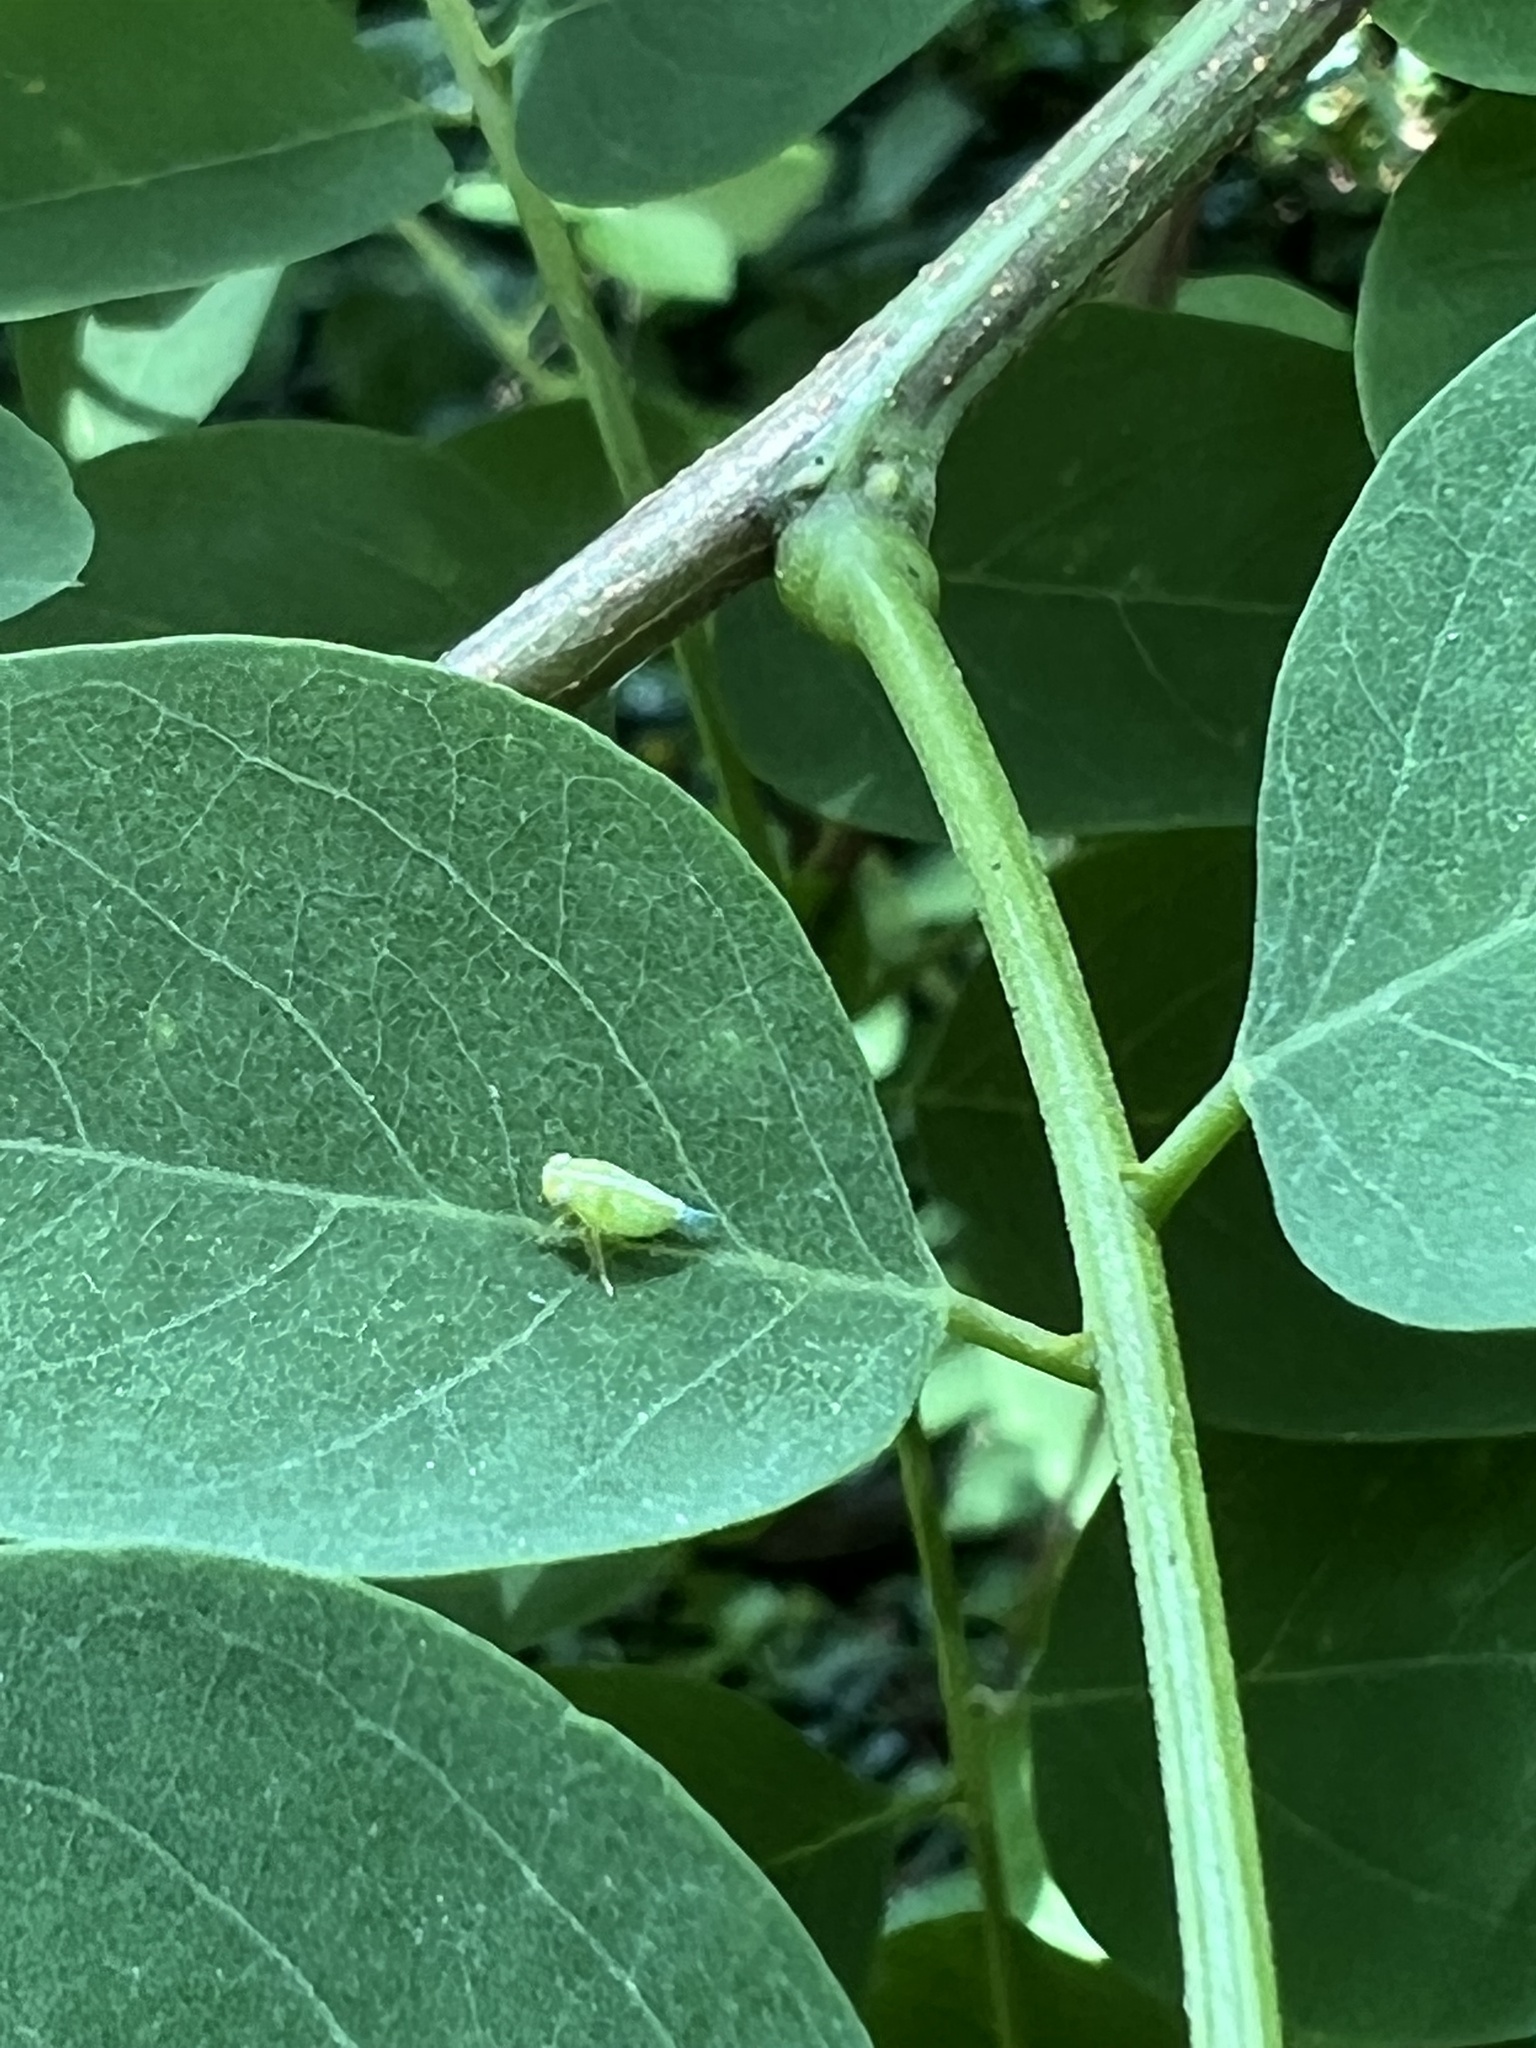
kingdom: Animalia
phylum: Arthropoda
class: Insecta
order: Hemiptera
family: Issidae
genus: Aplos
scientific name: Aplos simplex
